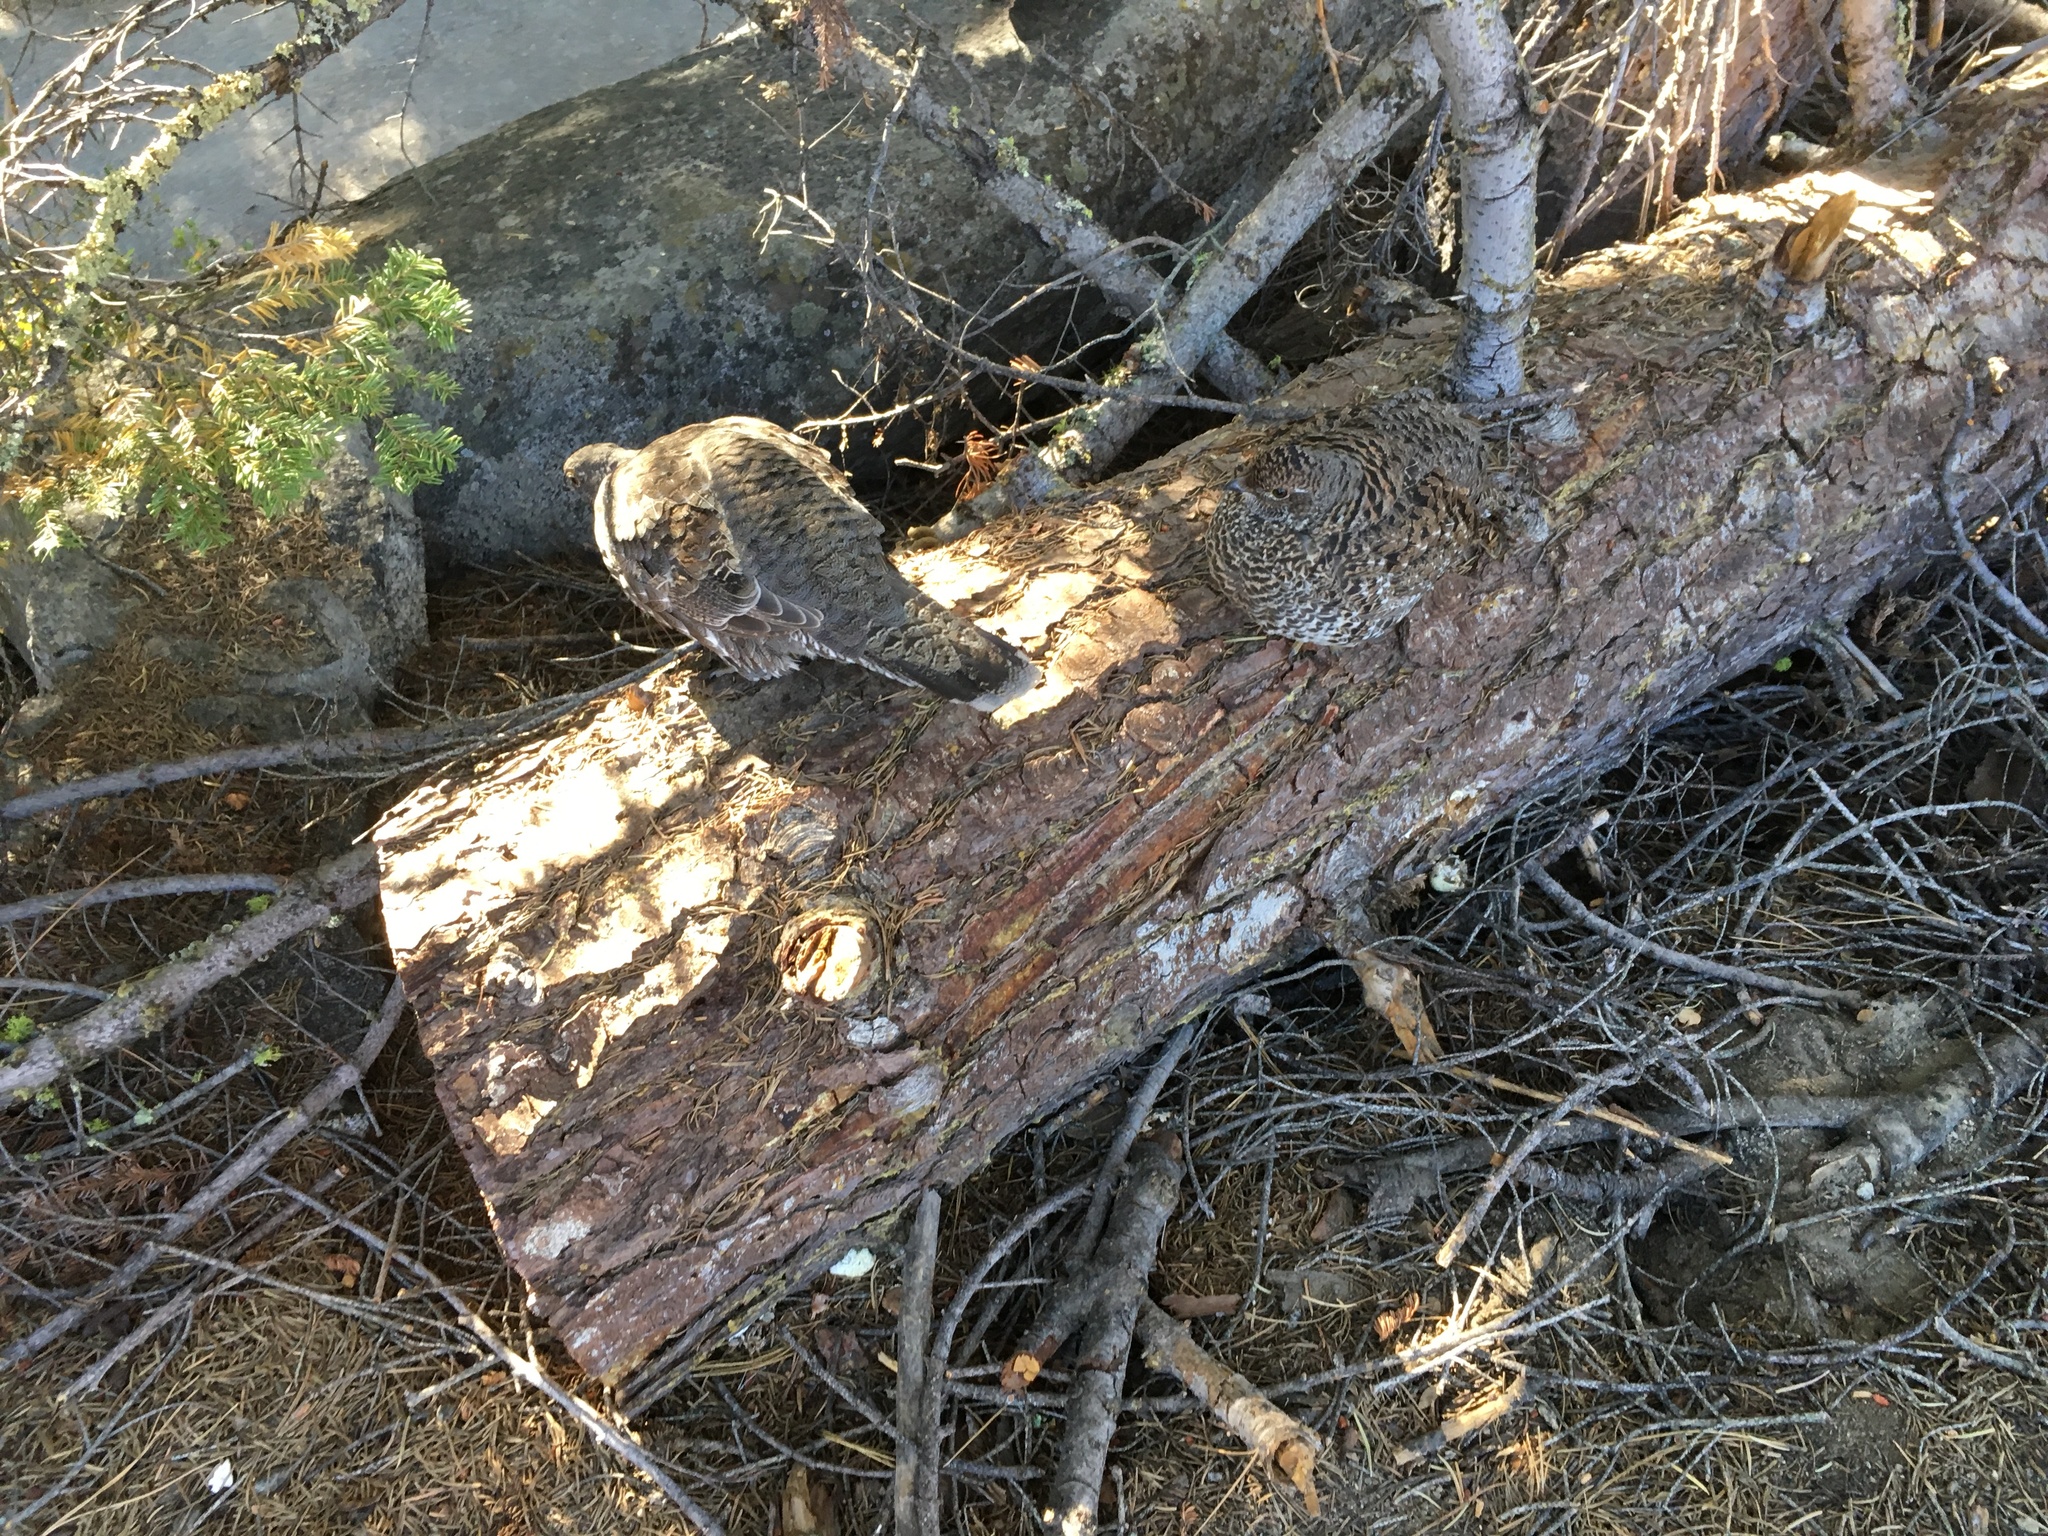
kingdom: Animalia
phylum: Chordata
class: Aves
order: Galliformes
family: Phasianidae
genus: Dendragapus
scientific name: Dendragapus fuliginosus
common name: Sooty grouse
